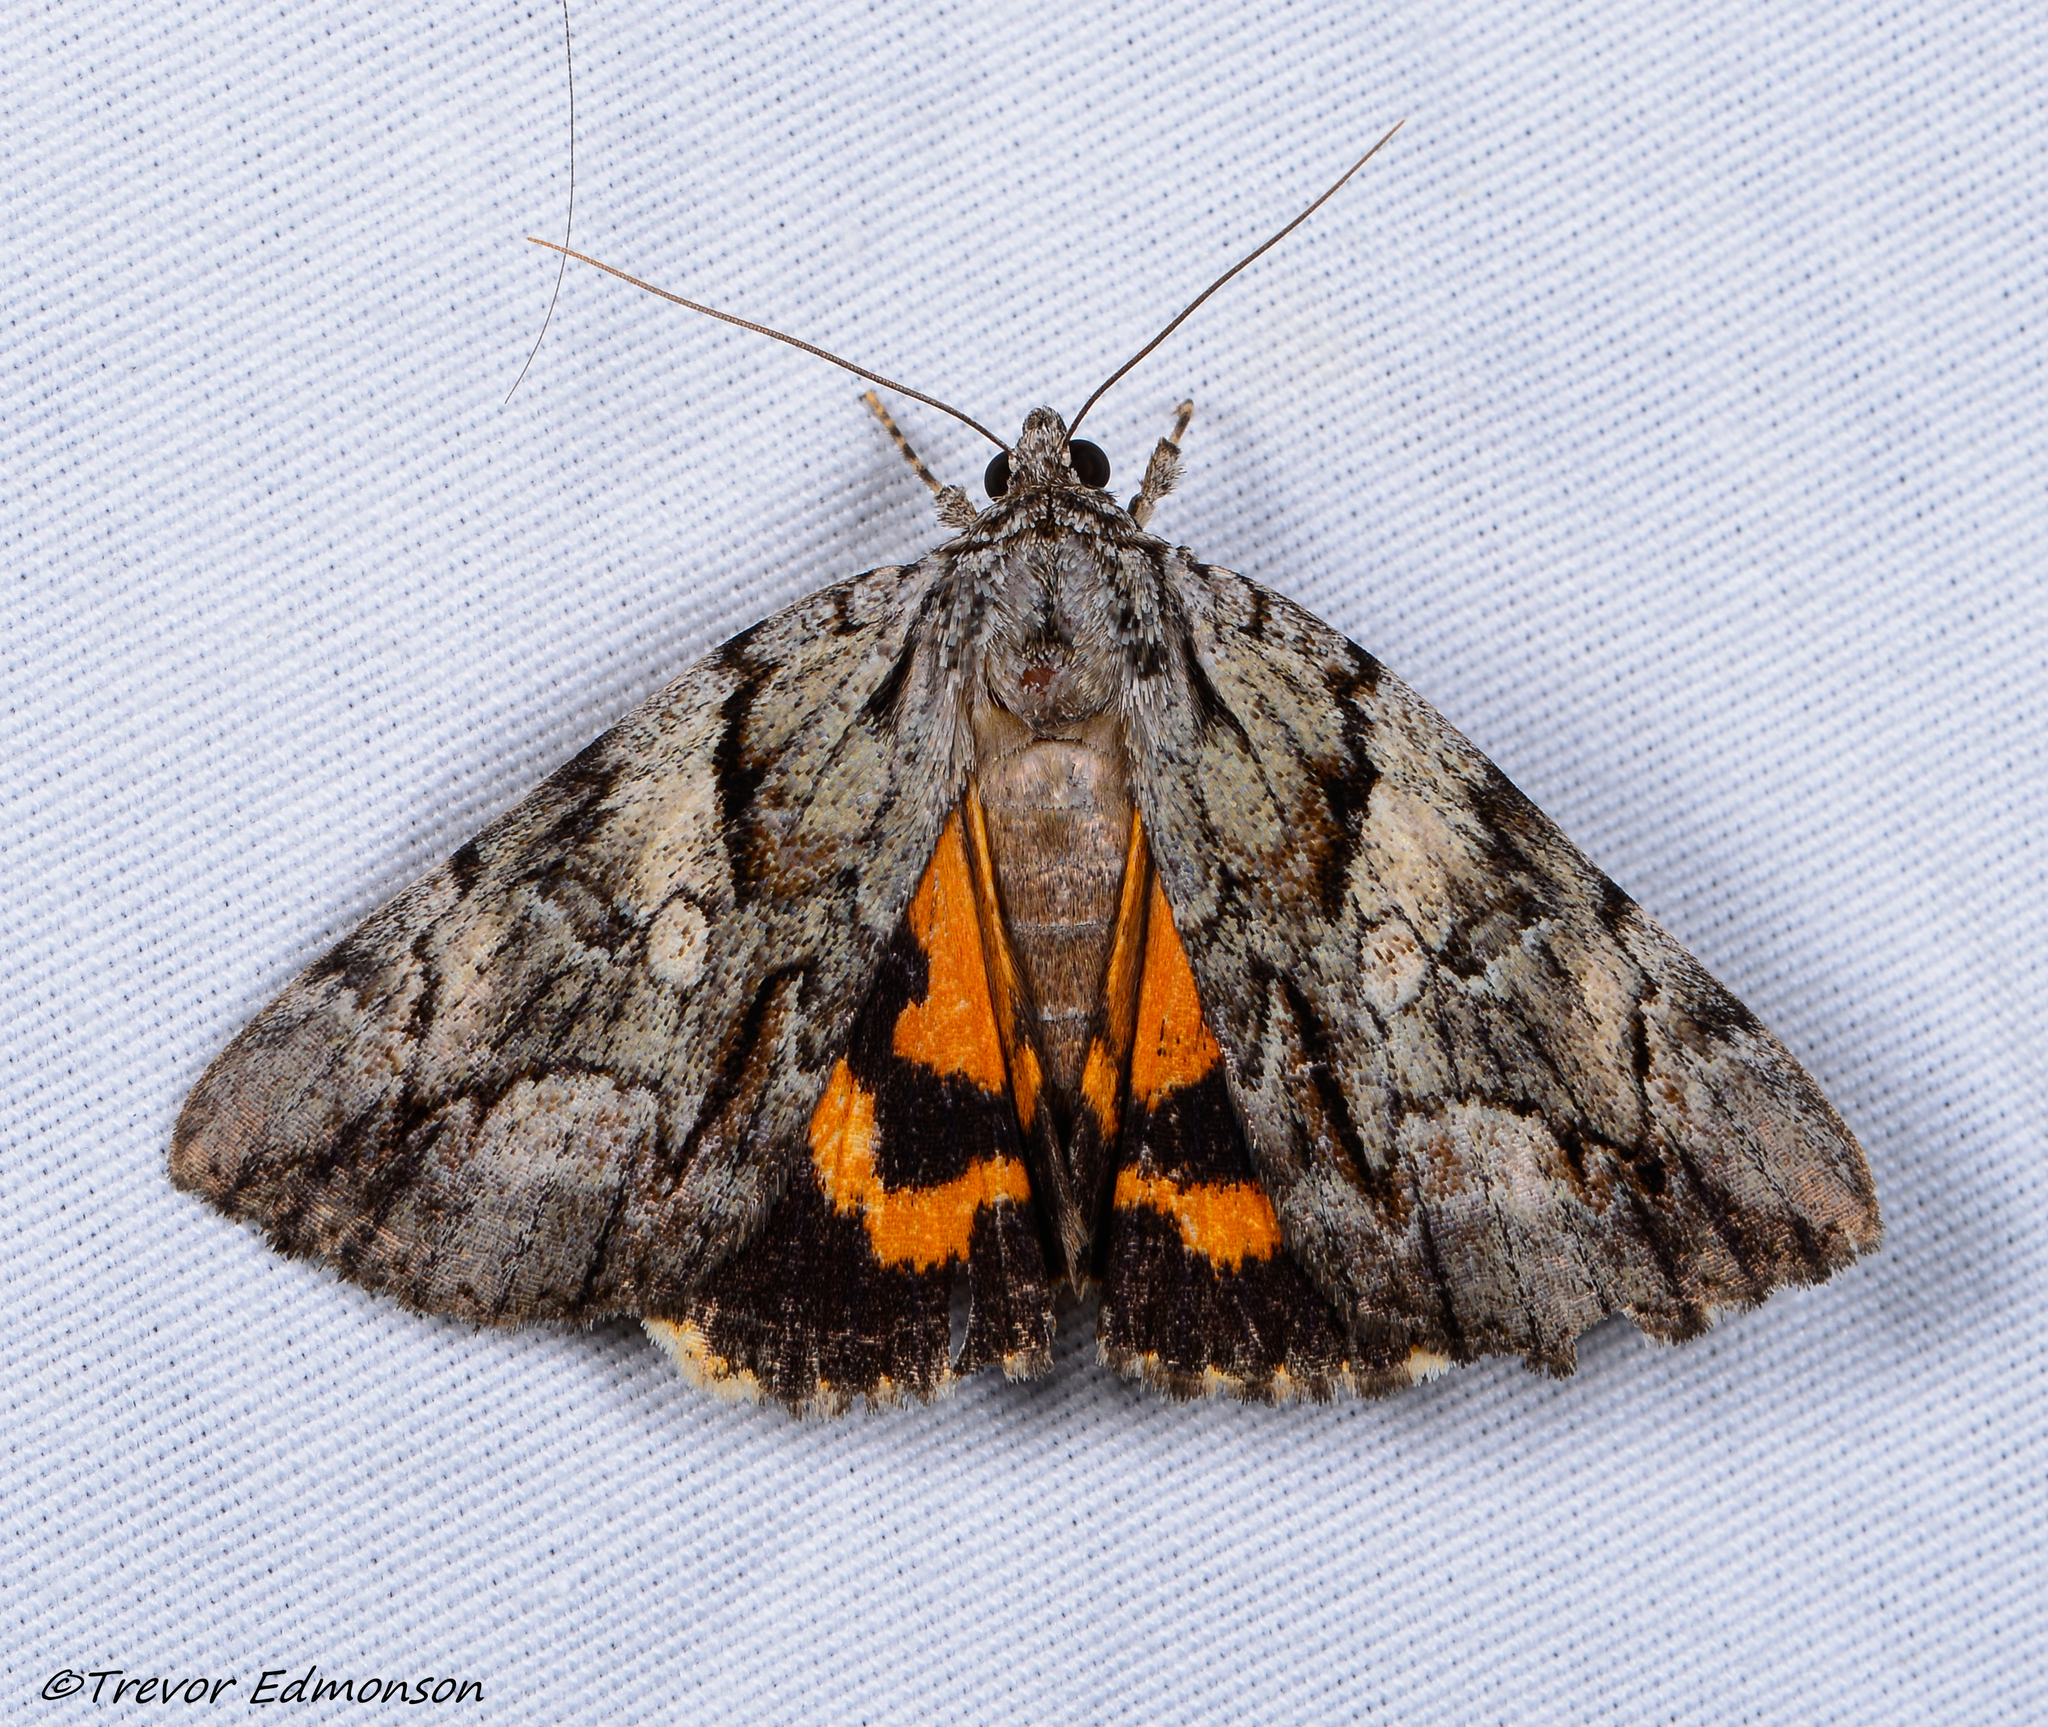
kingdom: Animalia
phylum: Arthropoda
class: Insecta
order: Lepidoptera
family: Erebidae
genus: Catocala
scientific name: Catocala mira
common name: Wonderful underwing
